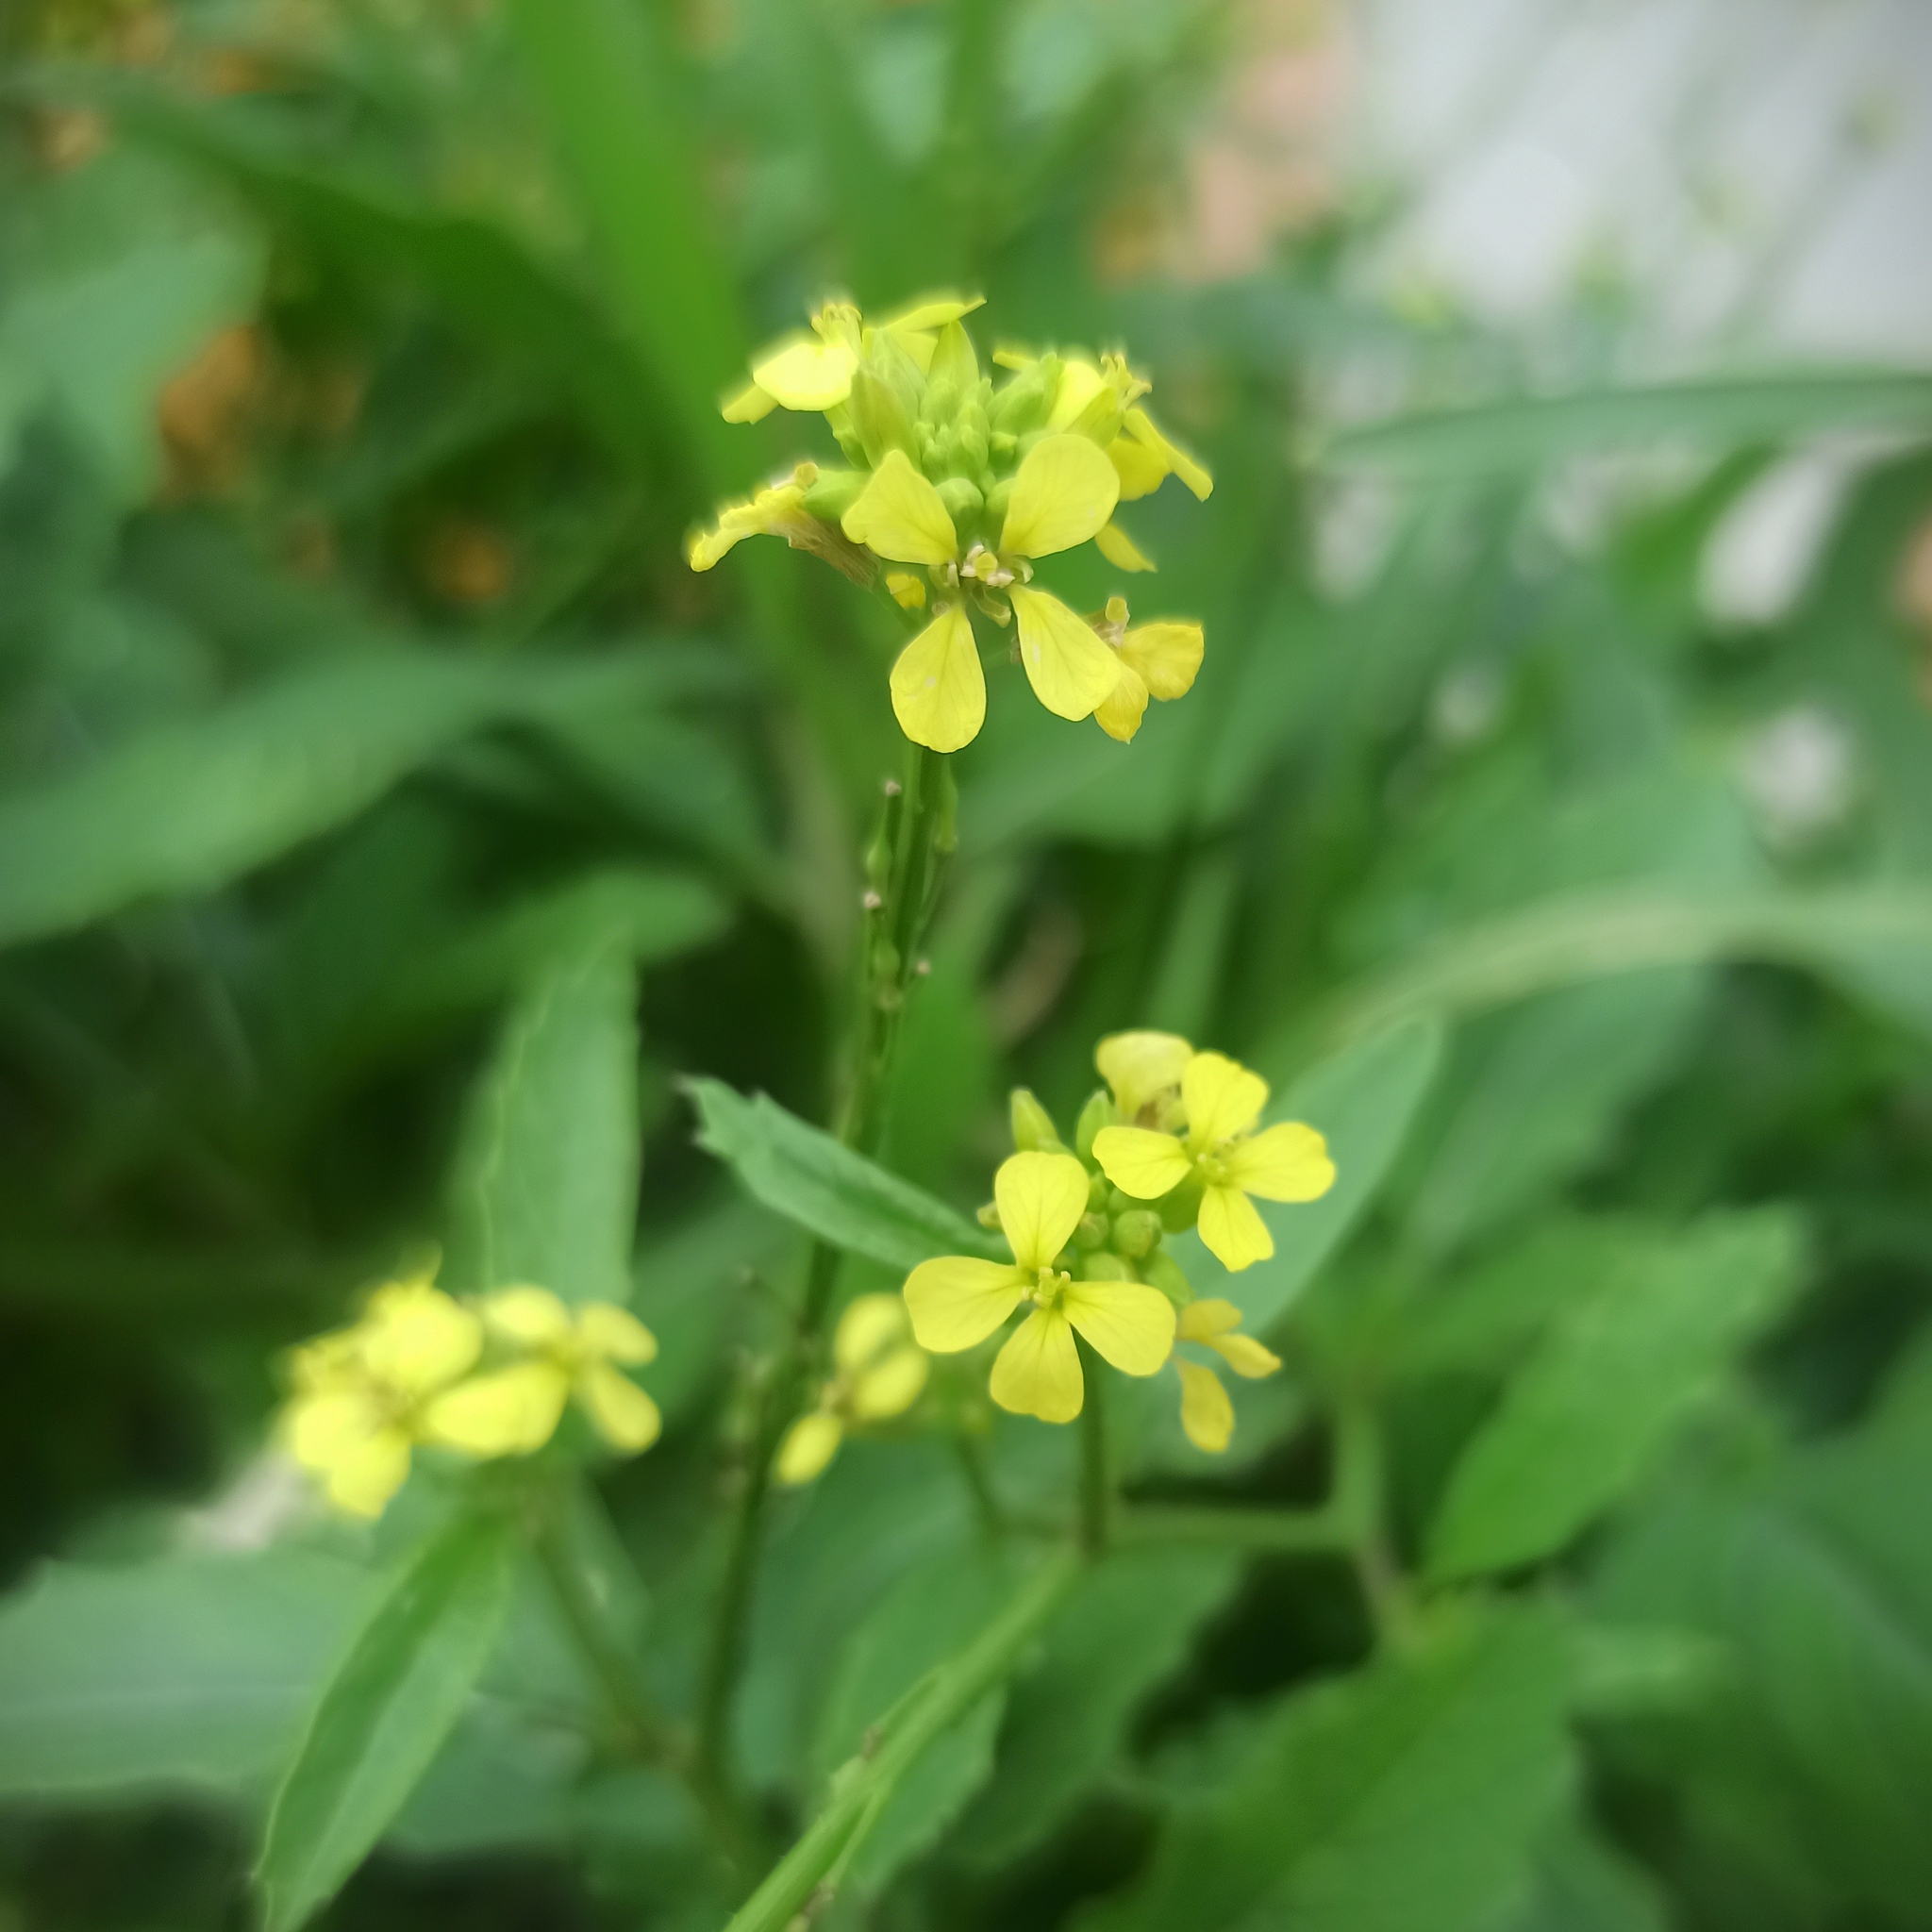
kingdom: Plantae
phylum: Tracheophyta
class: Magnoliopsida
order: Brassicales
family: Brassicaceae
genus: Rapistrum
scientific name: Rapistrum rugosum
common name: Annual bastardcabbage
